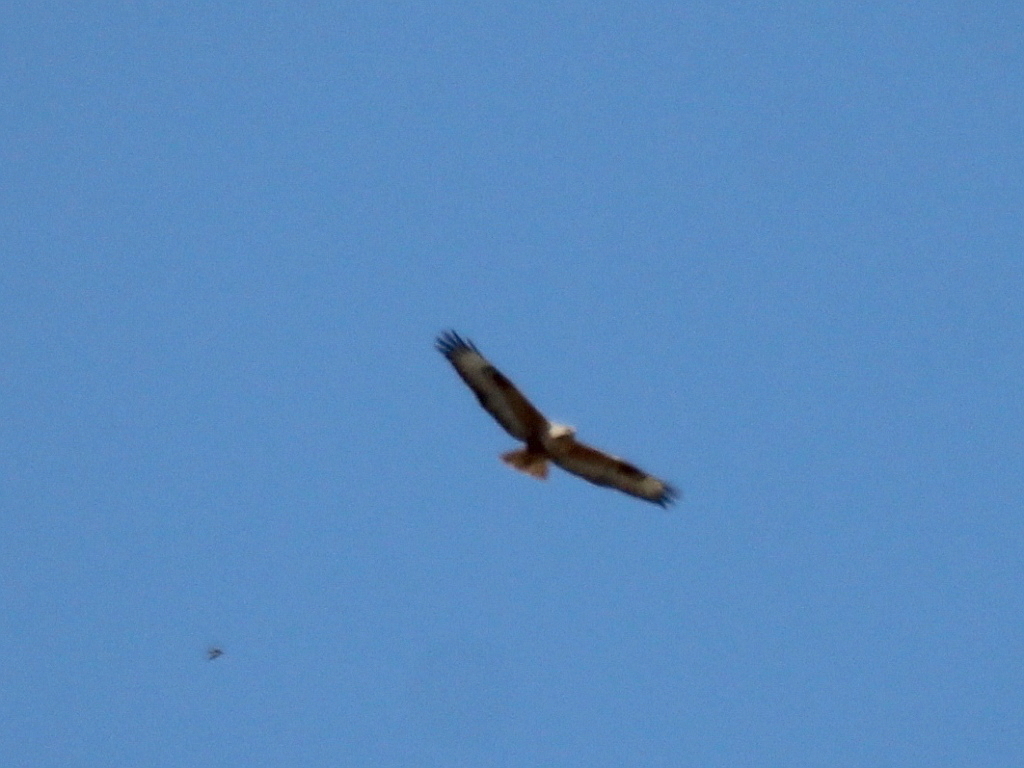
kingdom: Animalia
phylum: Chordata
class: Aves
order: Accipitriformes
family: Accipitridae
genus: Buteo
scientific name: Buteo rufinus
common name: Long-legged buzzard
